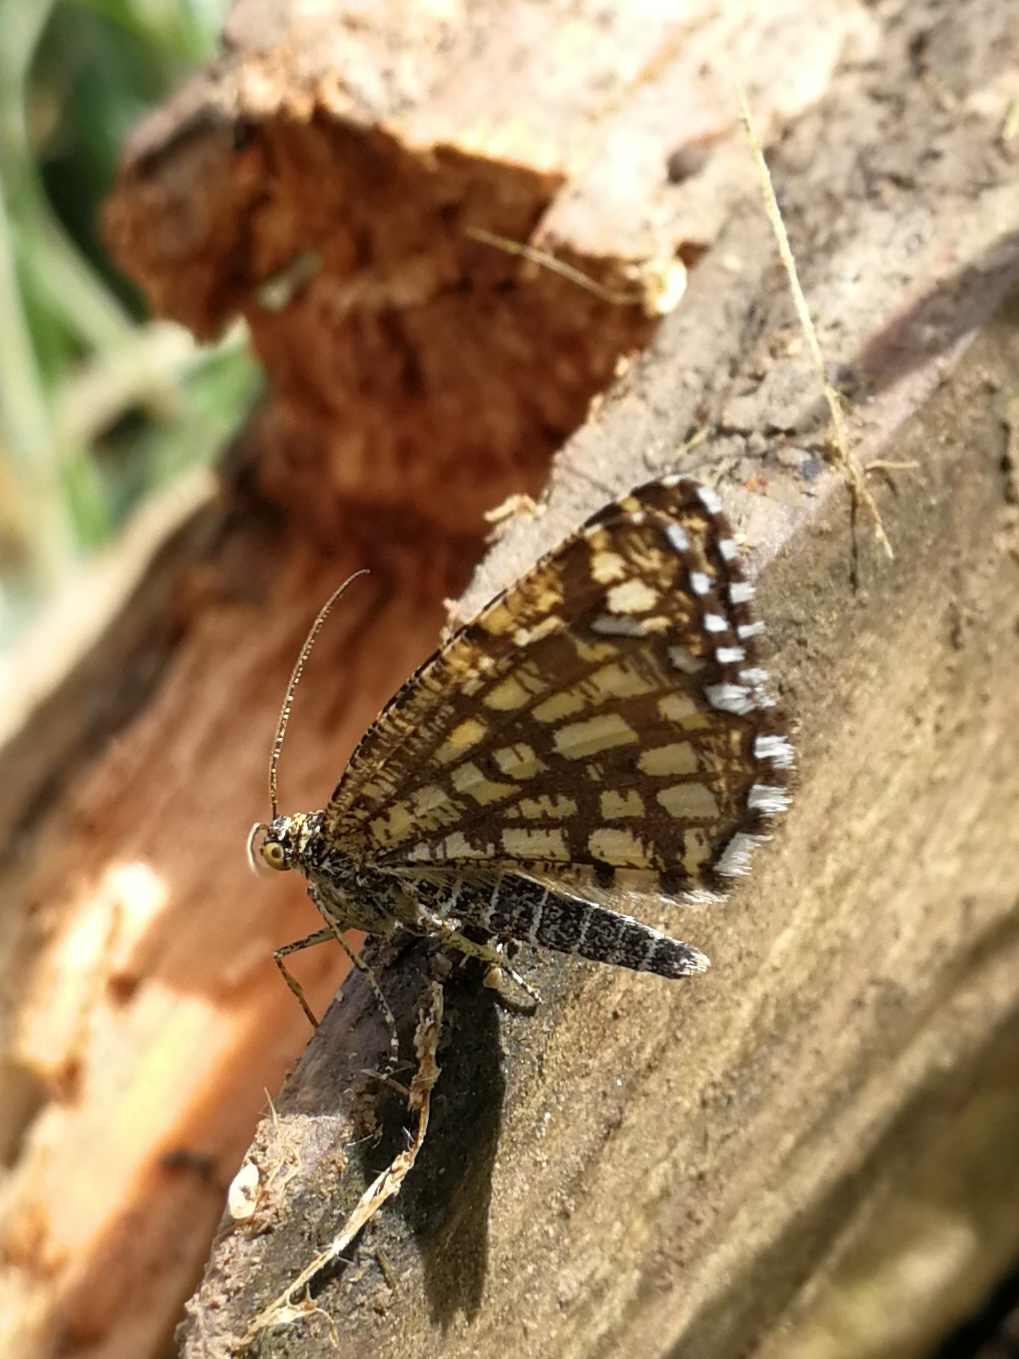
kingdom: Animalia
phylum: Arthropoda
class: Insecta
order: Lepidoptera
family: Geometridae
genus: Chiasmia
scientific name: Chiasmia clathrata
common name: Latticed heath
